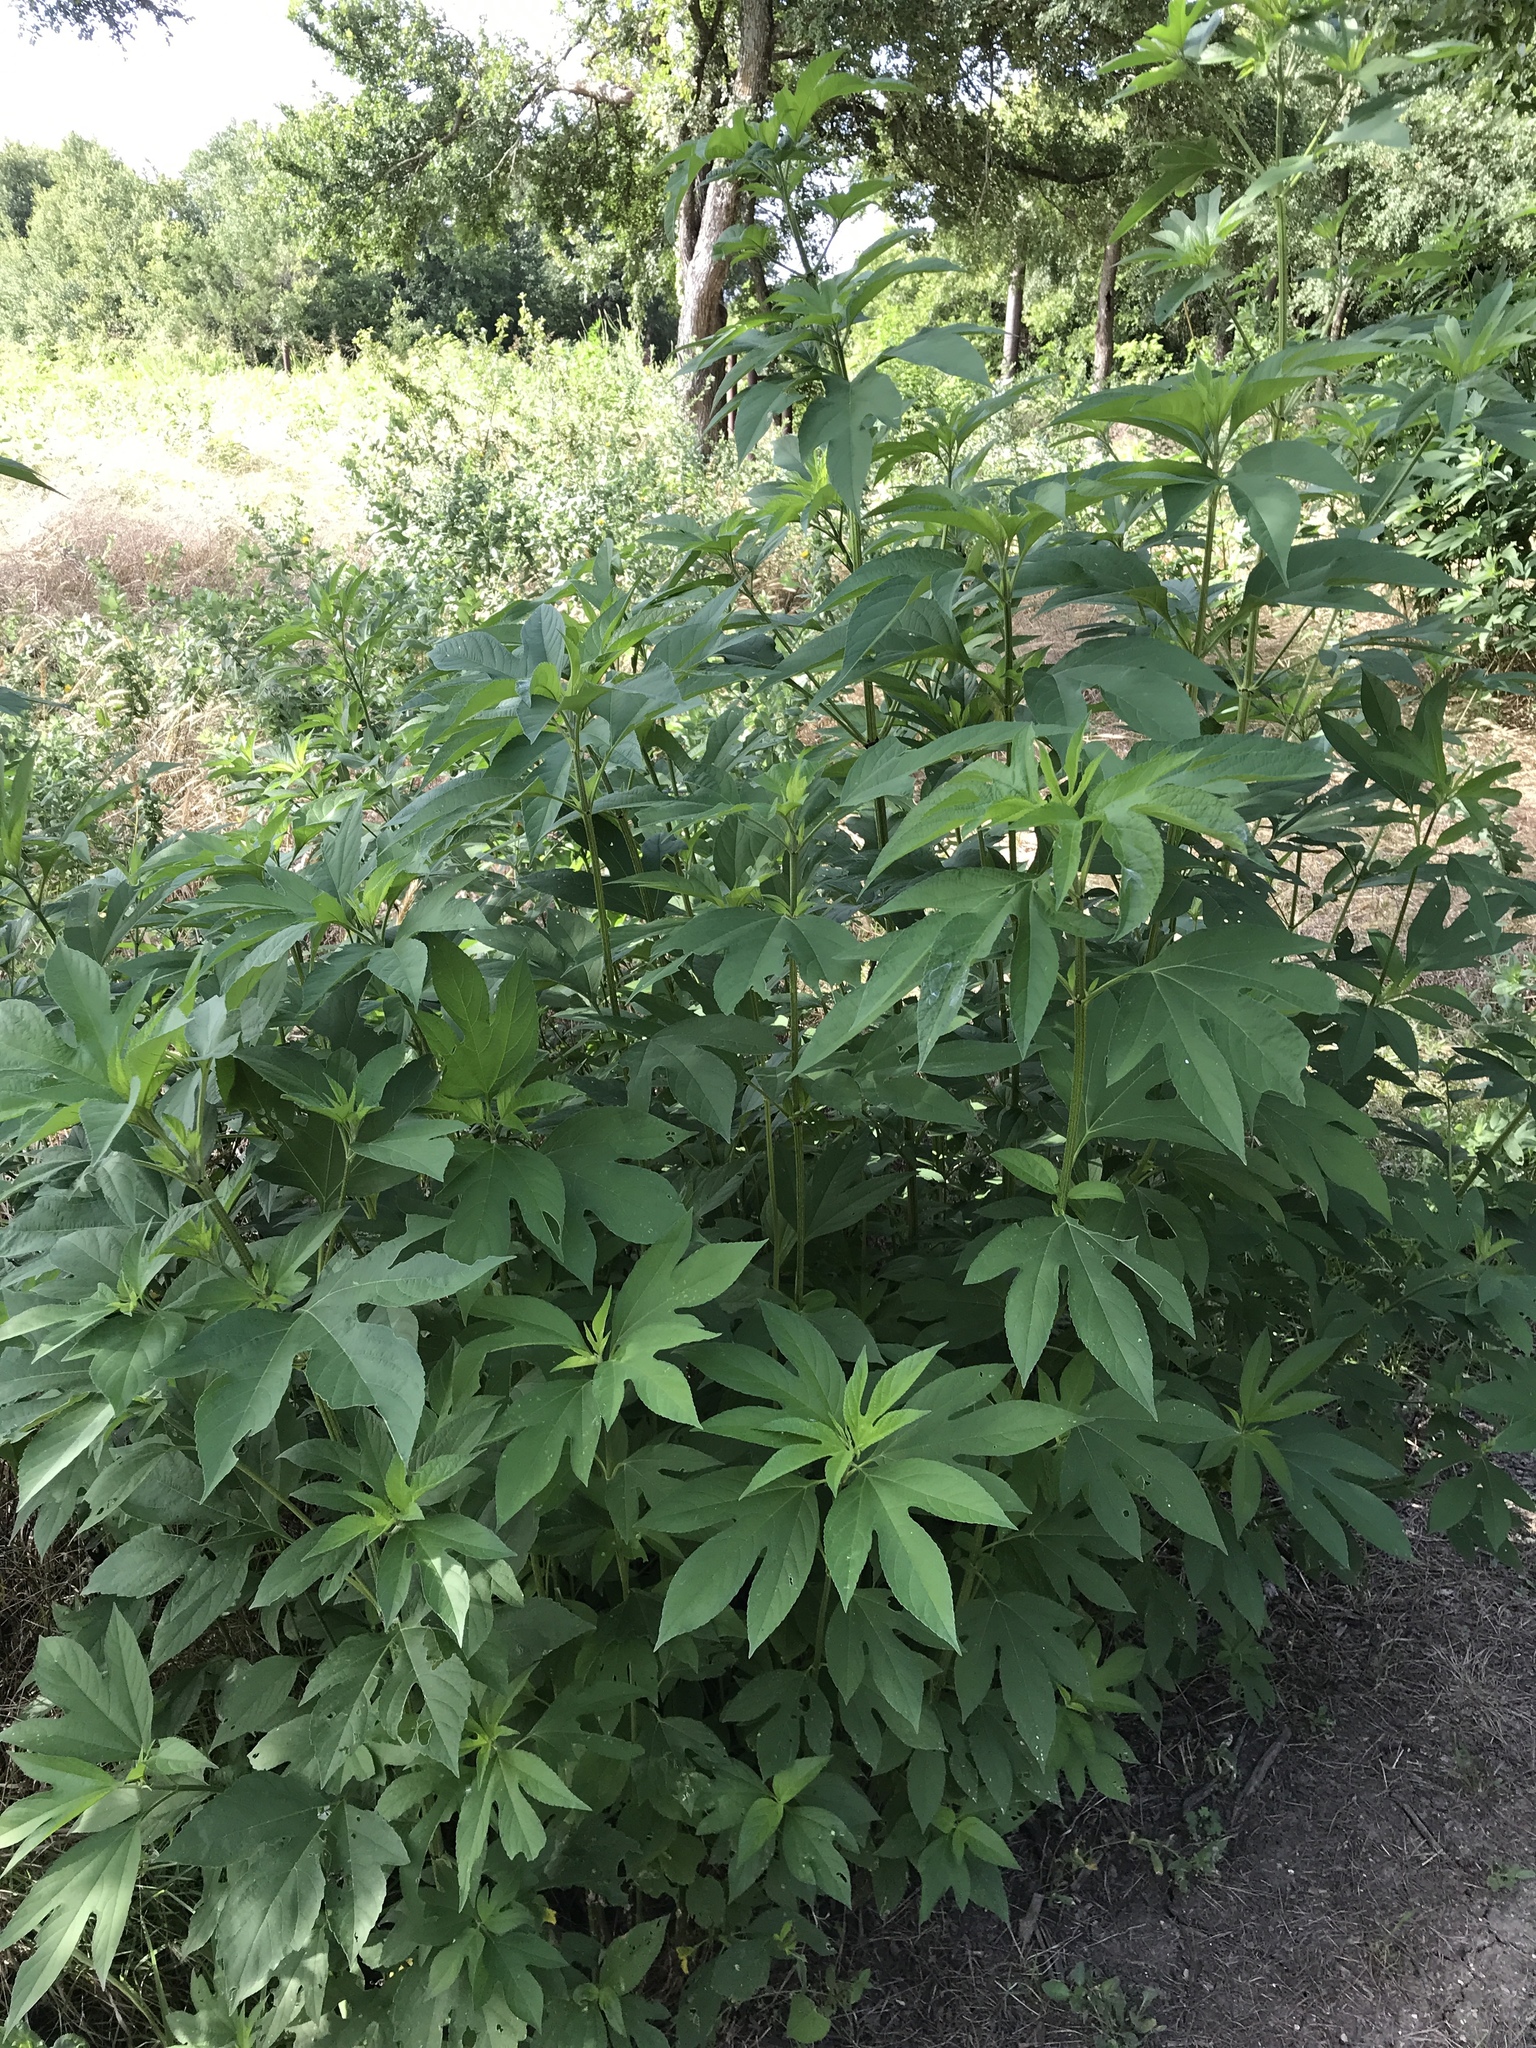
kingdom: Plantae
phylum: Tracheophyta
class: Magnoliopsida
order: Asterales
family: Asteraceae
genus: Ambrosia
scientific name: Ambrosia trifida
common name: Giant ragweed
